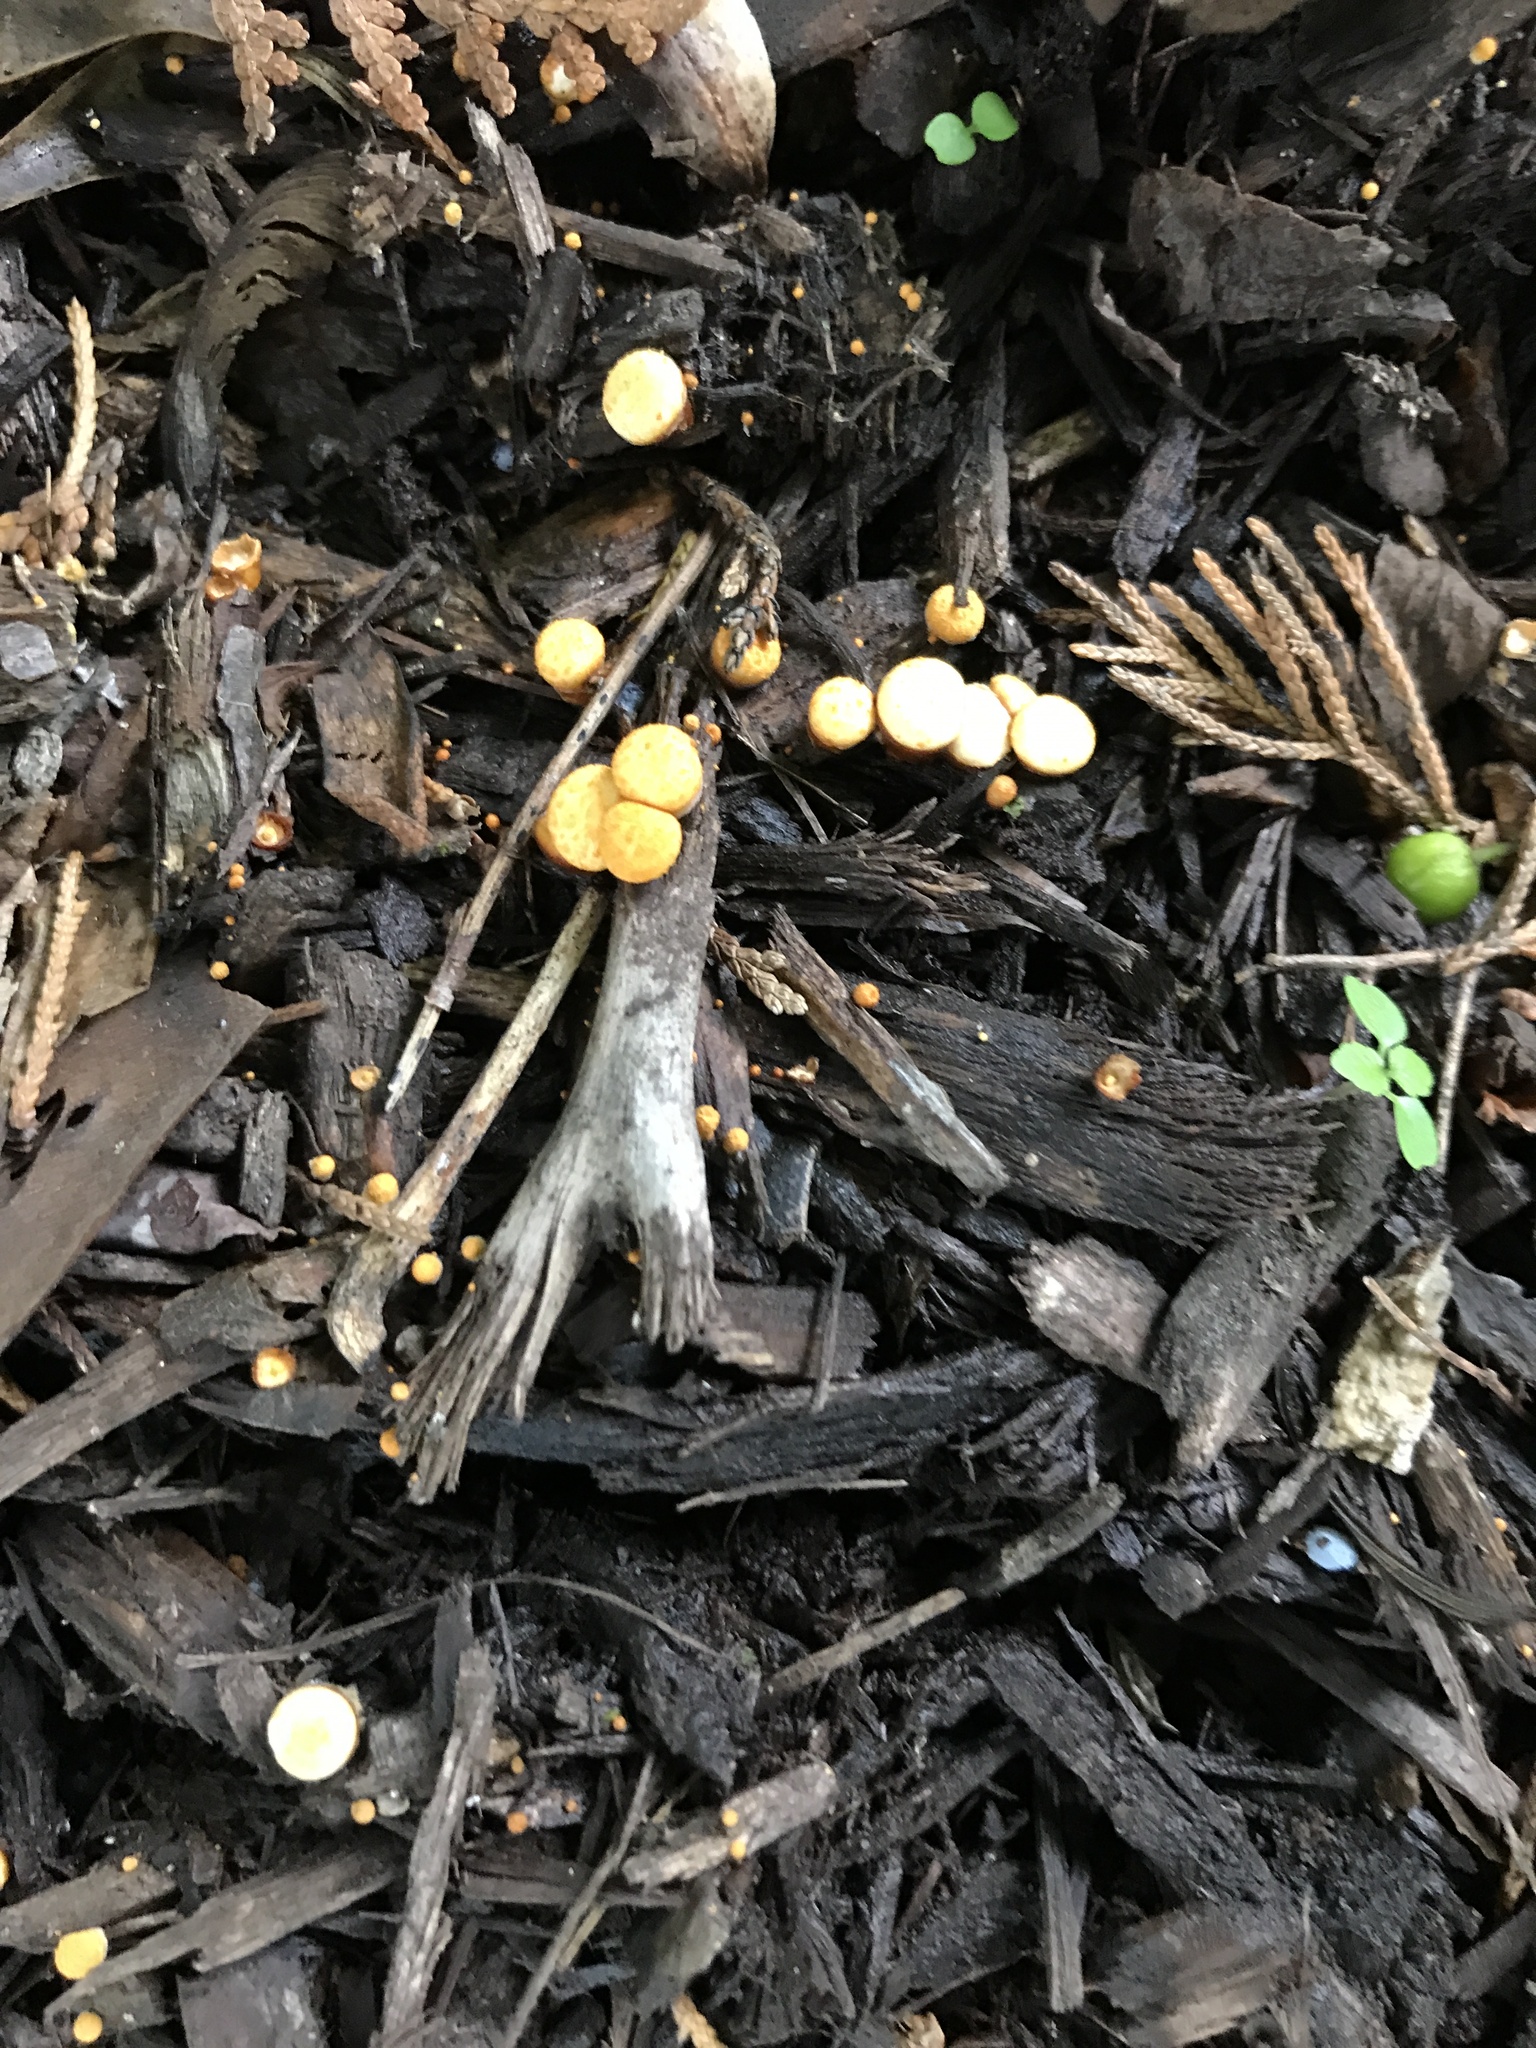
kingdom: Fungi
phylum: Basidiomycota
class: Agaricomycetes
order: Agaricales
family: Nidulariaceae
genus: Crucibulum
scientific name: Crucibulum laeve
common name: Common bird's nest
